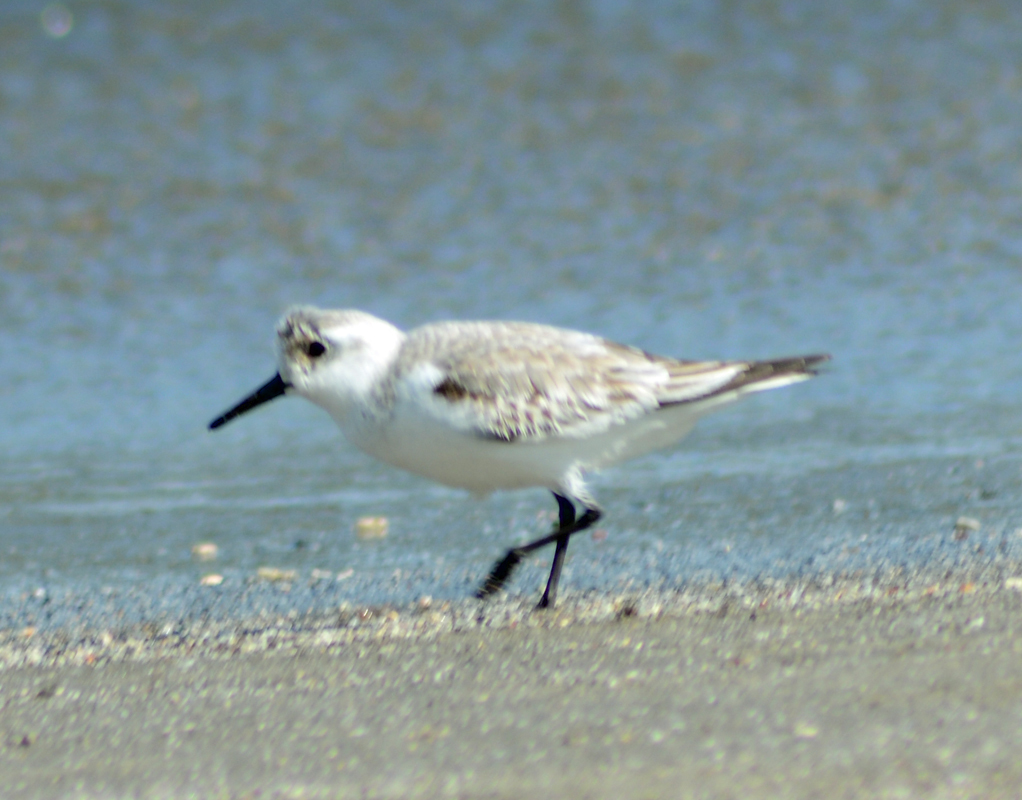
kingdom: Animalia
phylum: Chordata
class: Aves
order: Charadriiformes
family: Scolopacidae
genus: Calidris
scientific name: Calidris alba
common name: Sanderling
